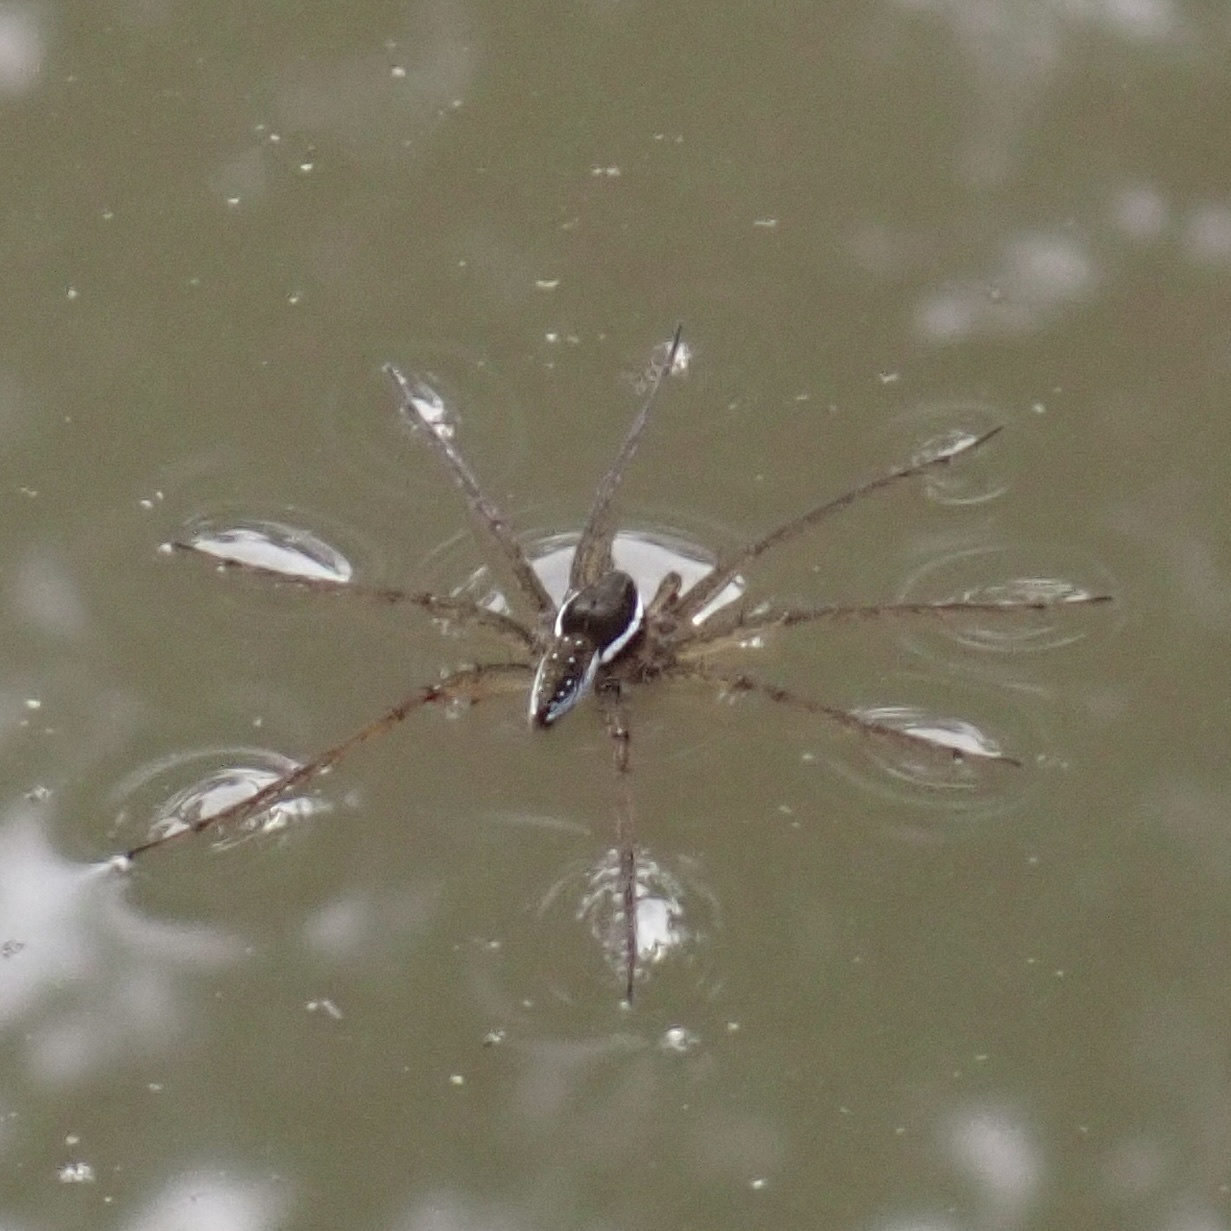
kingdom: Animalia
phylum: Arthropoda
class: Arachnida
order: Araneae
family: Pisauridae
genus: Dolomedes
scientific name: Dolomedes triton
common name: Six-spotted fishing spider
